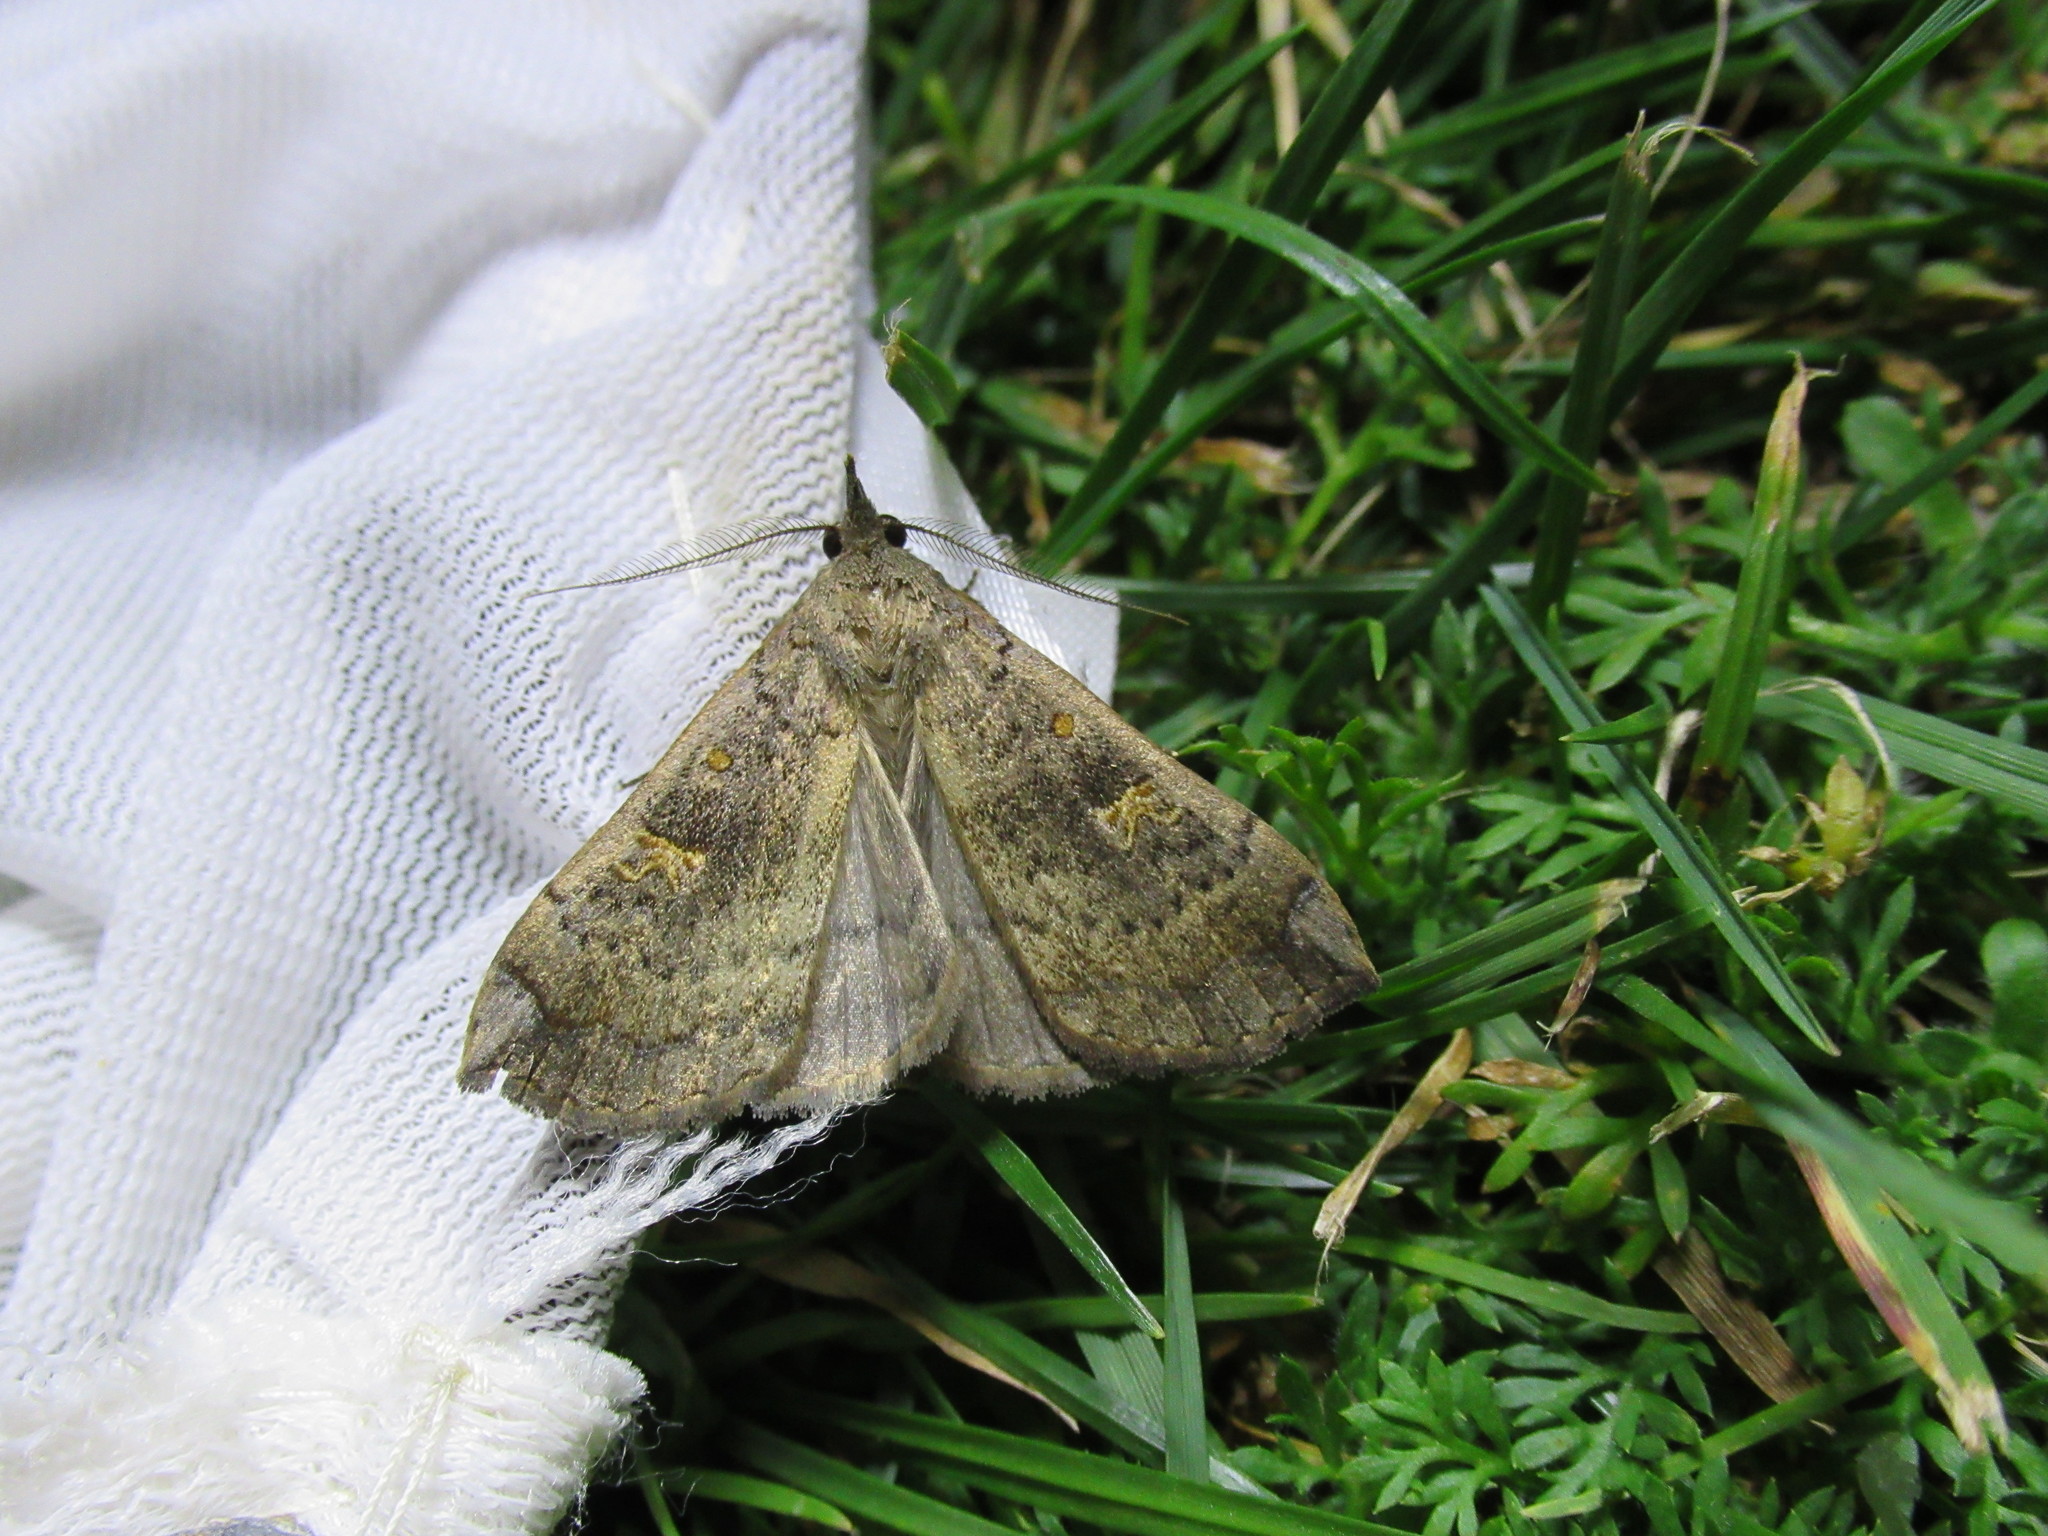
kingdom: Animalia
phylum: Arthropoda
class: Insecta
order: Lepidoptera
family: Erebidae
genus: Rhapsa
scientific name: Rhapsa scotosialis
